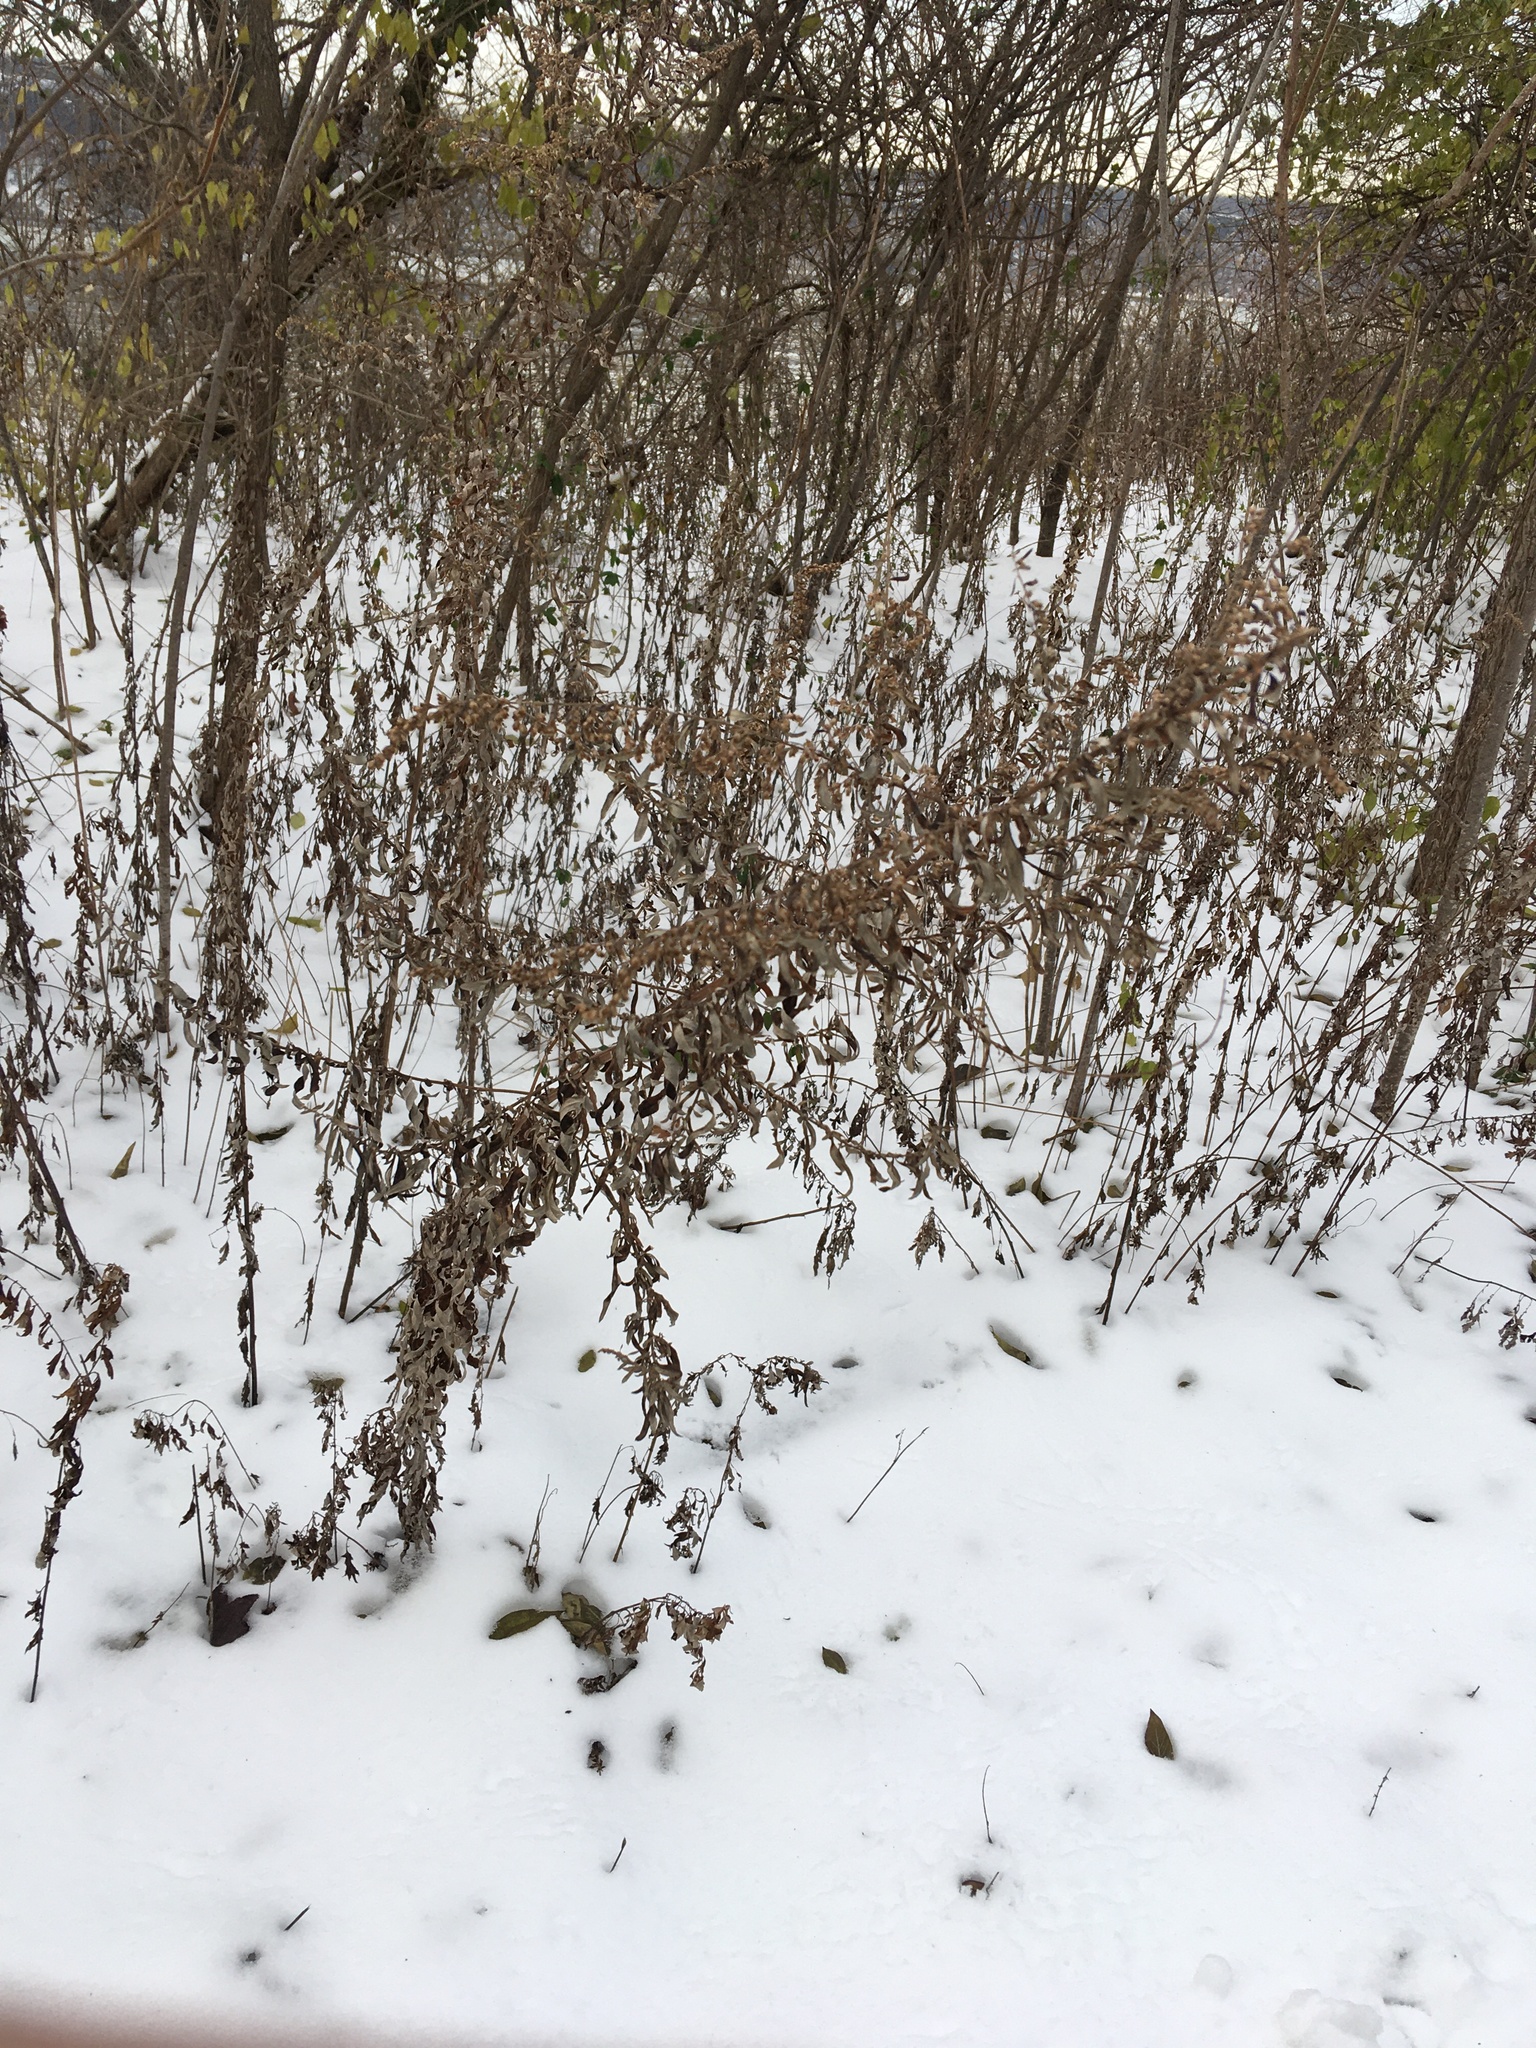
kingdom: Plantae
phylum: Tracheophyta
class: Magnoliopsida
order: Asterales
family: Asteraceae
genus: Artemisia
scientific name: Artemisia vulgaris
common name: Mugwort
